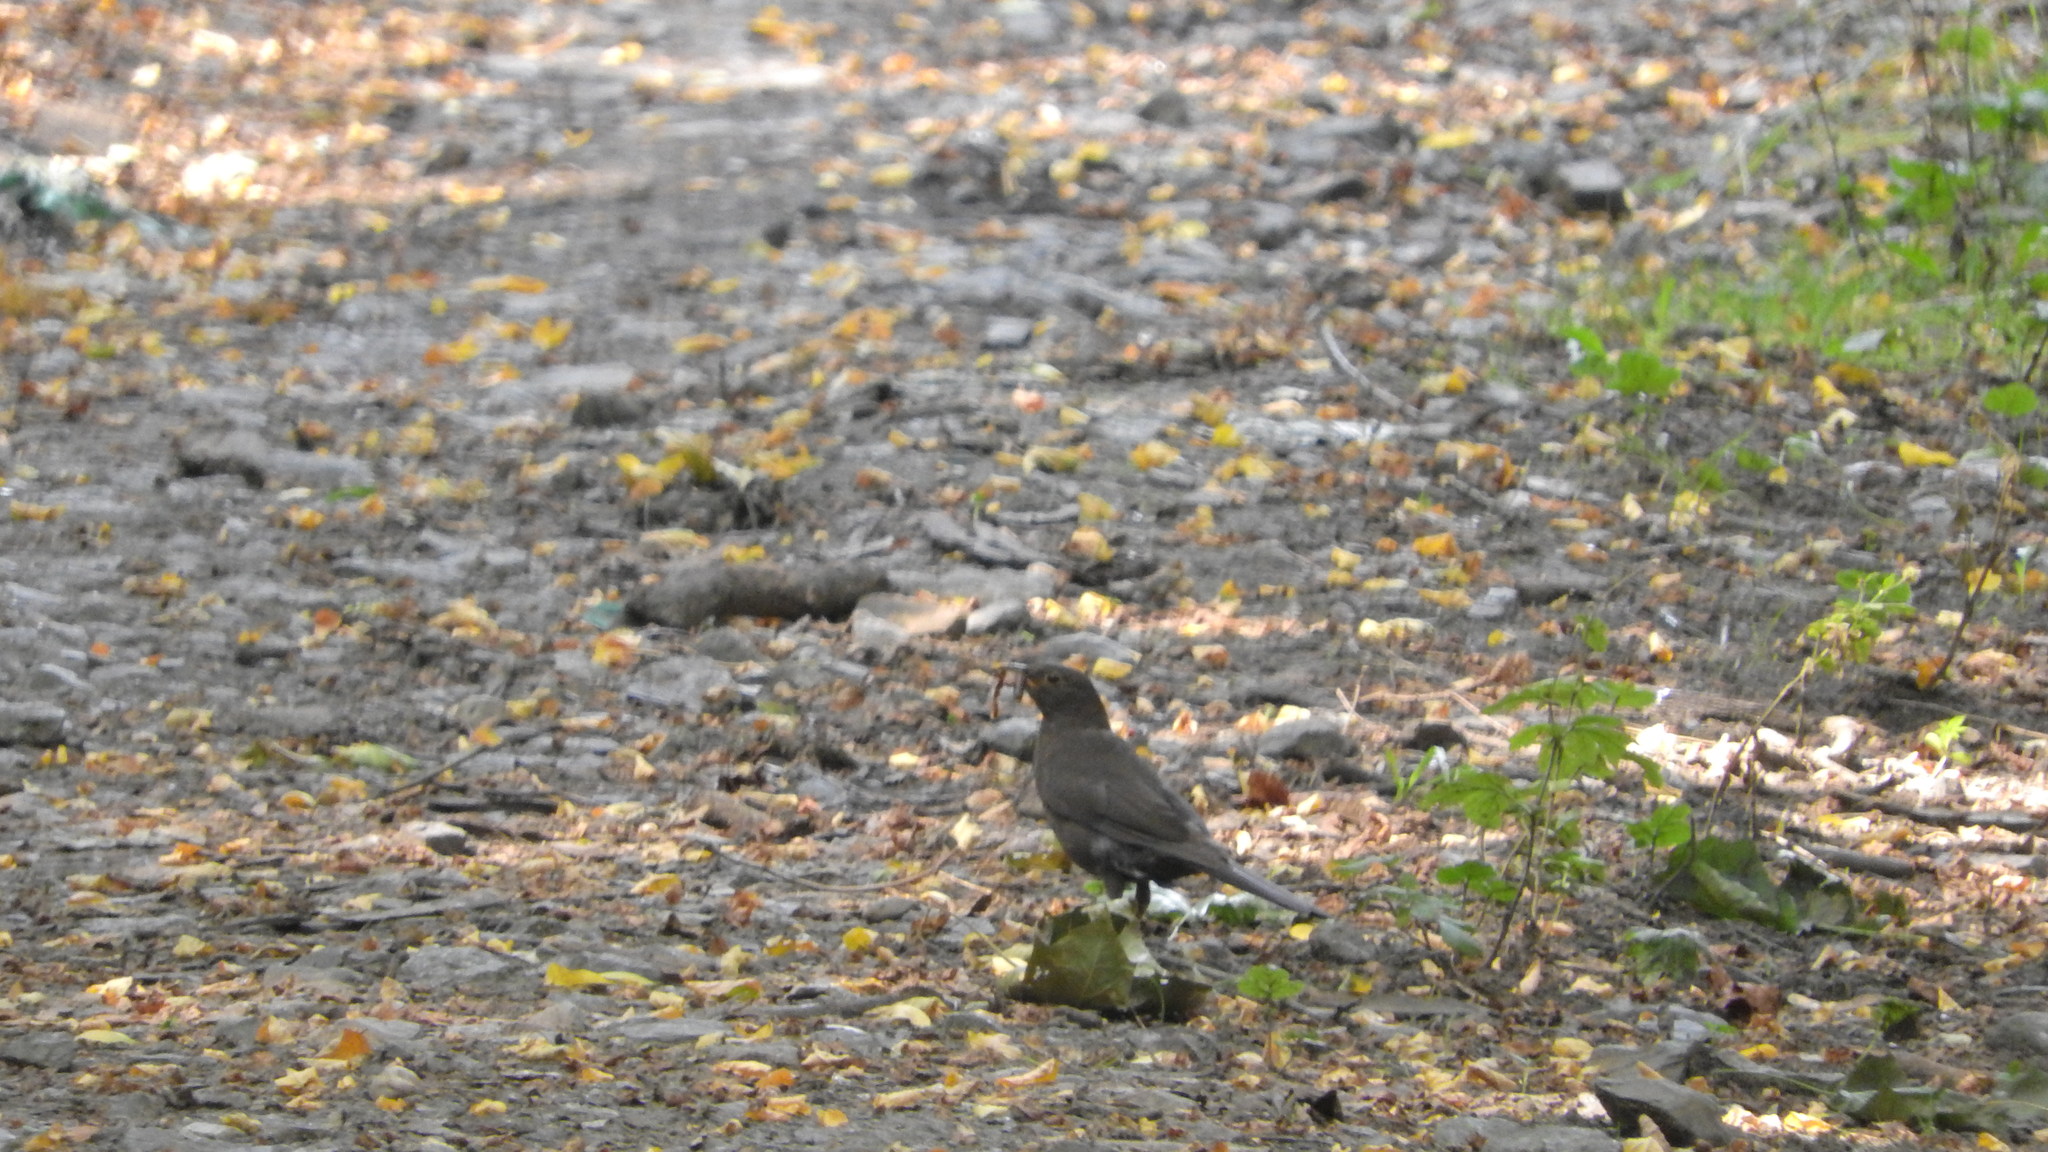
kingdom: Animalia
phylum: Chordata
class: Aves
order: Passeriformes
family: Turdidae
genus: Turdus
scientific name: Turdus merula
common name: Common blackbird
